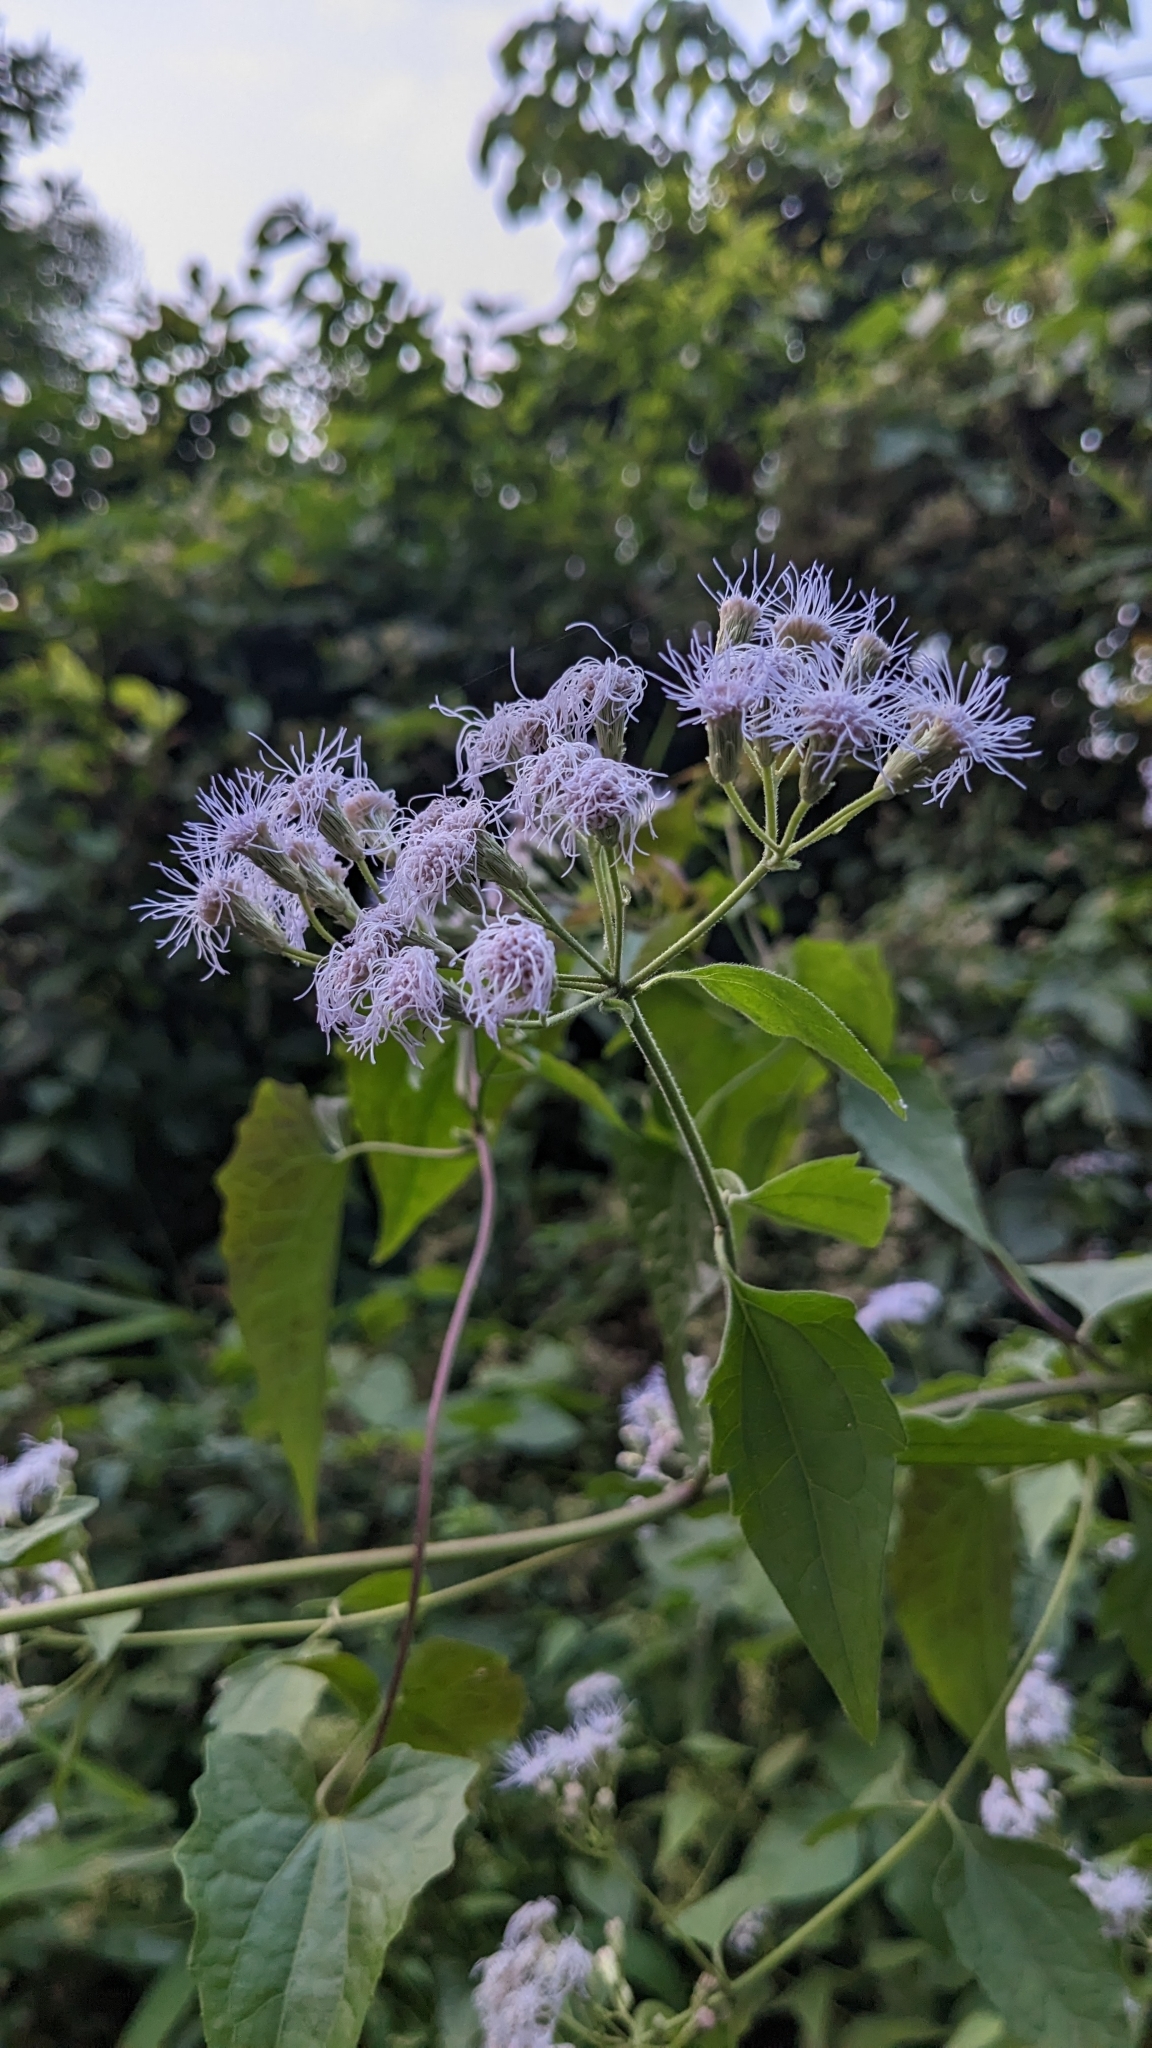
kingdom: Plantae
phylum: Tracheophyta
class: Magnoliopsida
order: Asterales
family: Asteraceae
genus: Chromolaena
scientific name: Chromolaena odorata
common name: Siamweed
